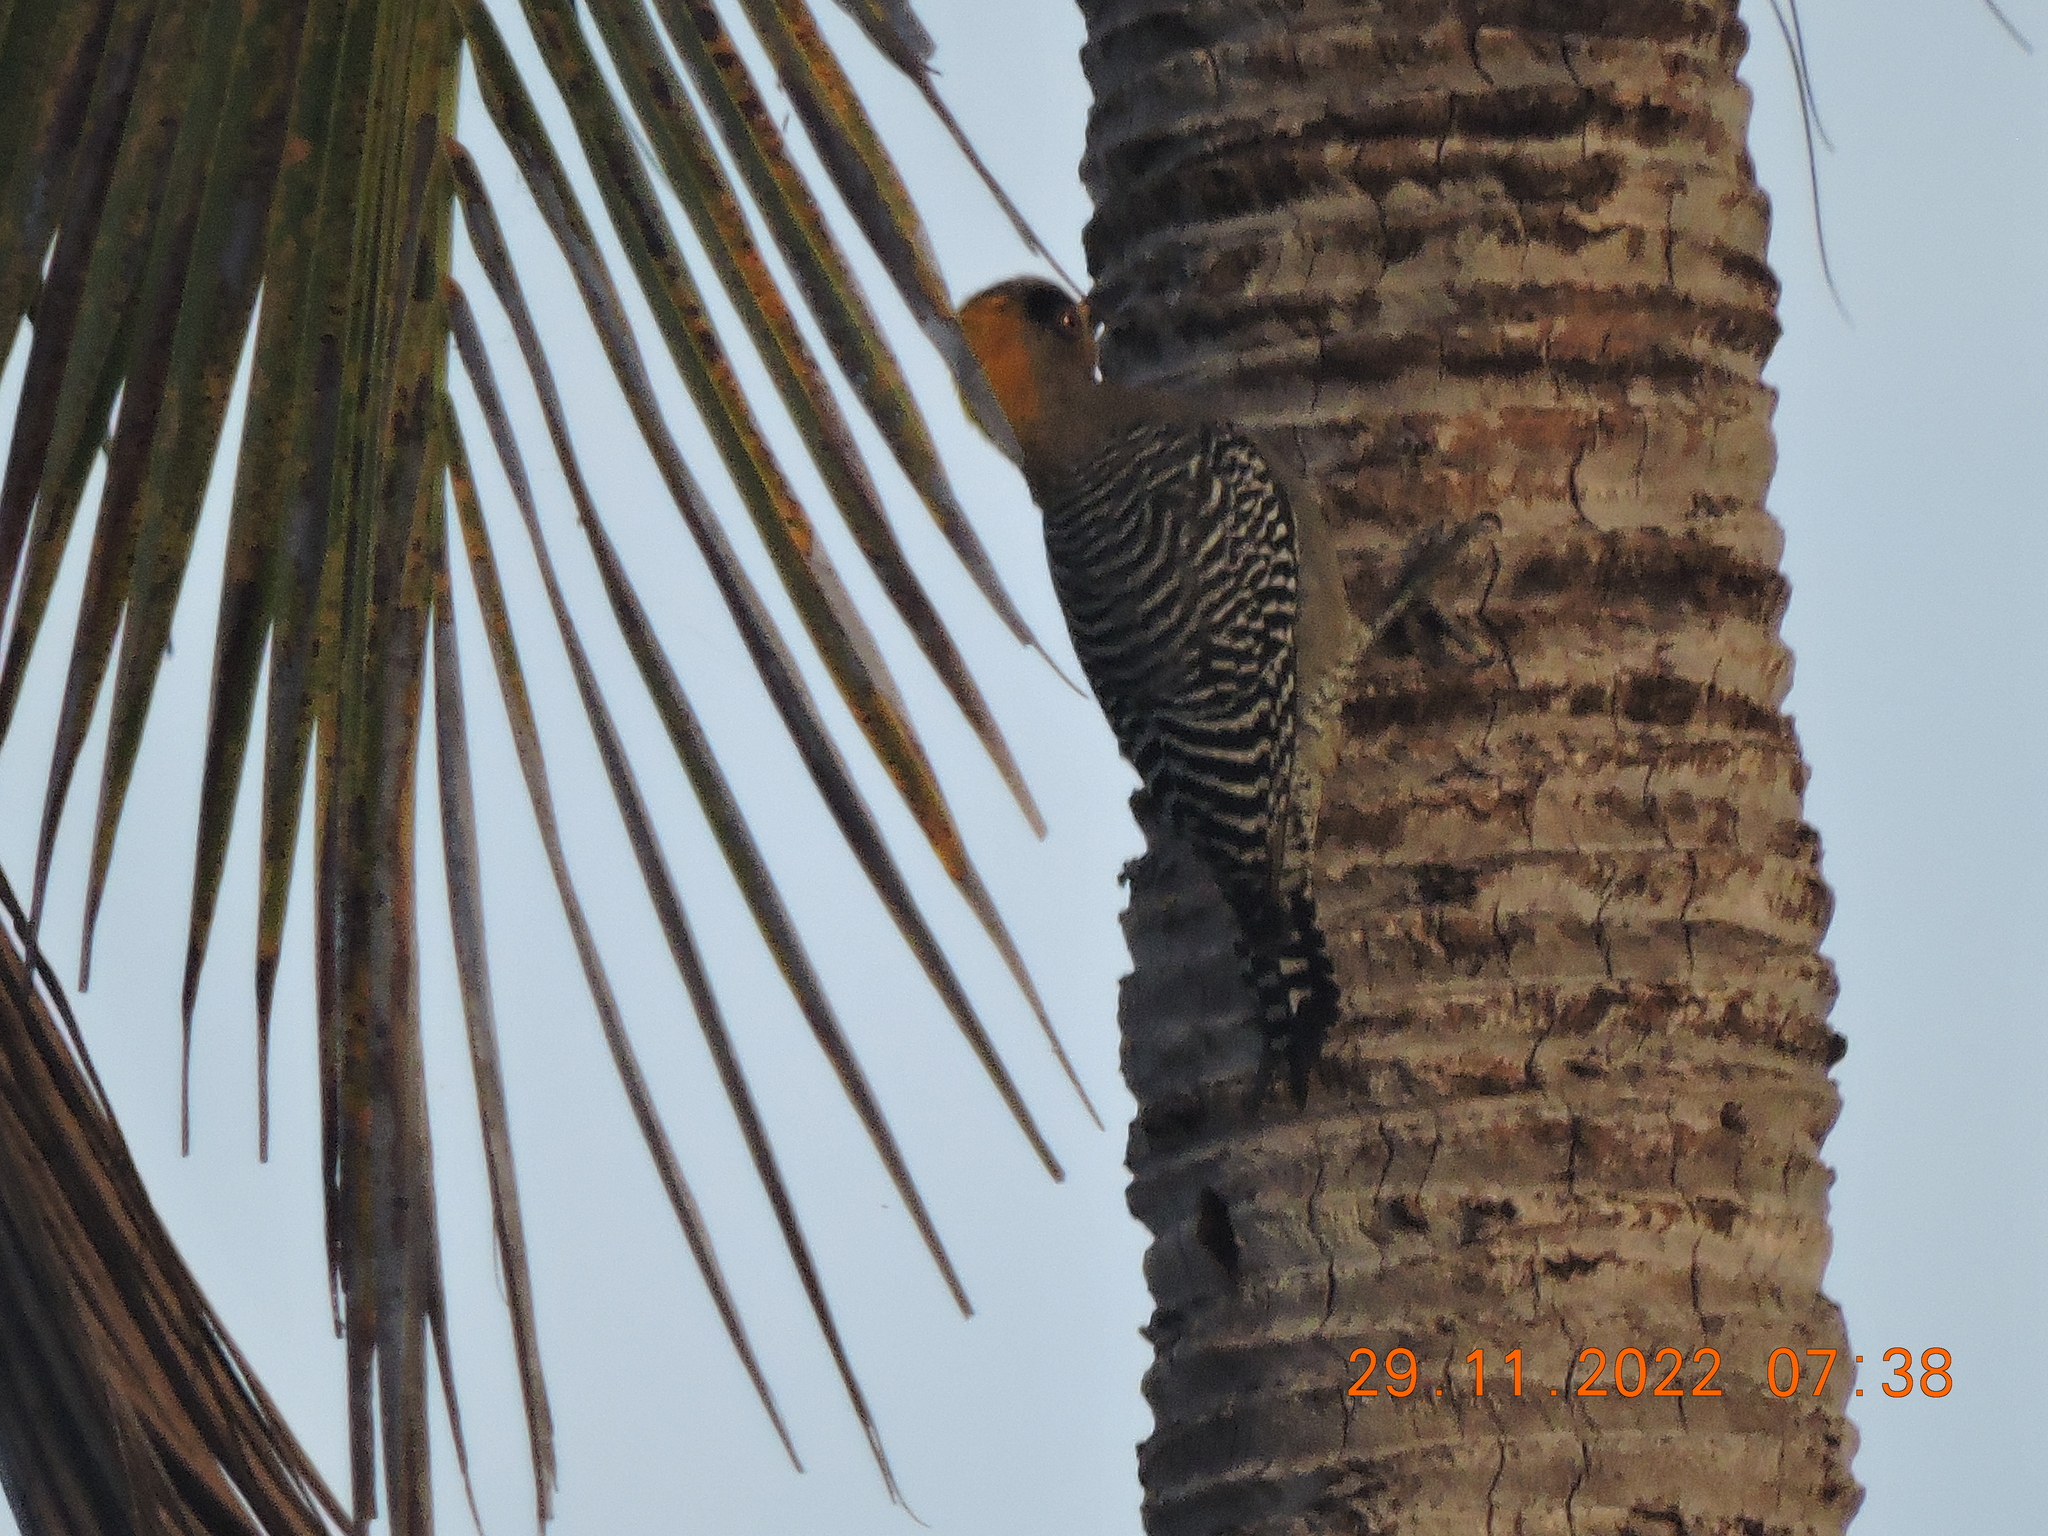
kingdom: Animalia
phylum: Chordata
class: Aves
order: Piciformes
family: Picidae
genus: Melanerpes
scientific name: Melanerpes chrysogenys
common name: Golden-cheeked woodpecker
